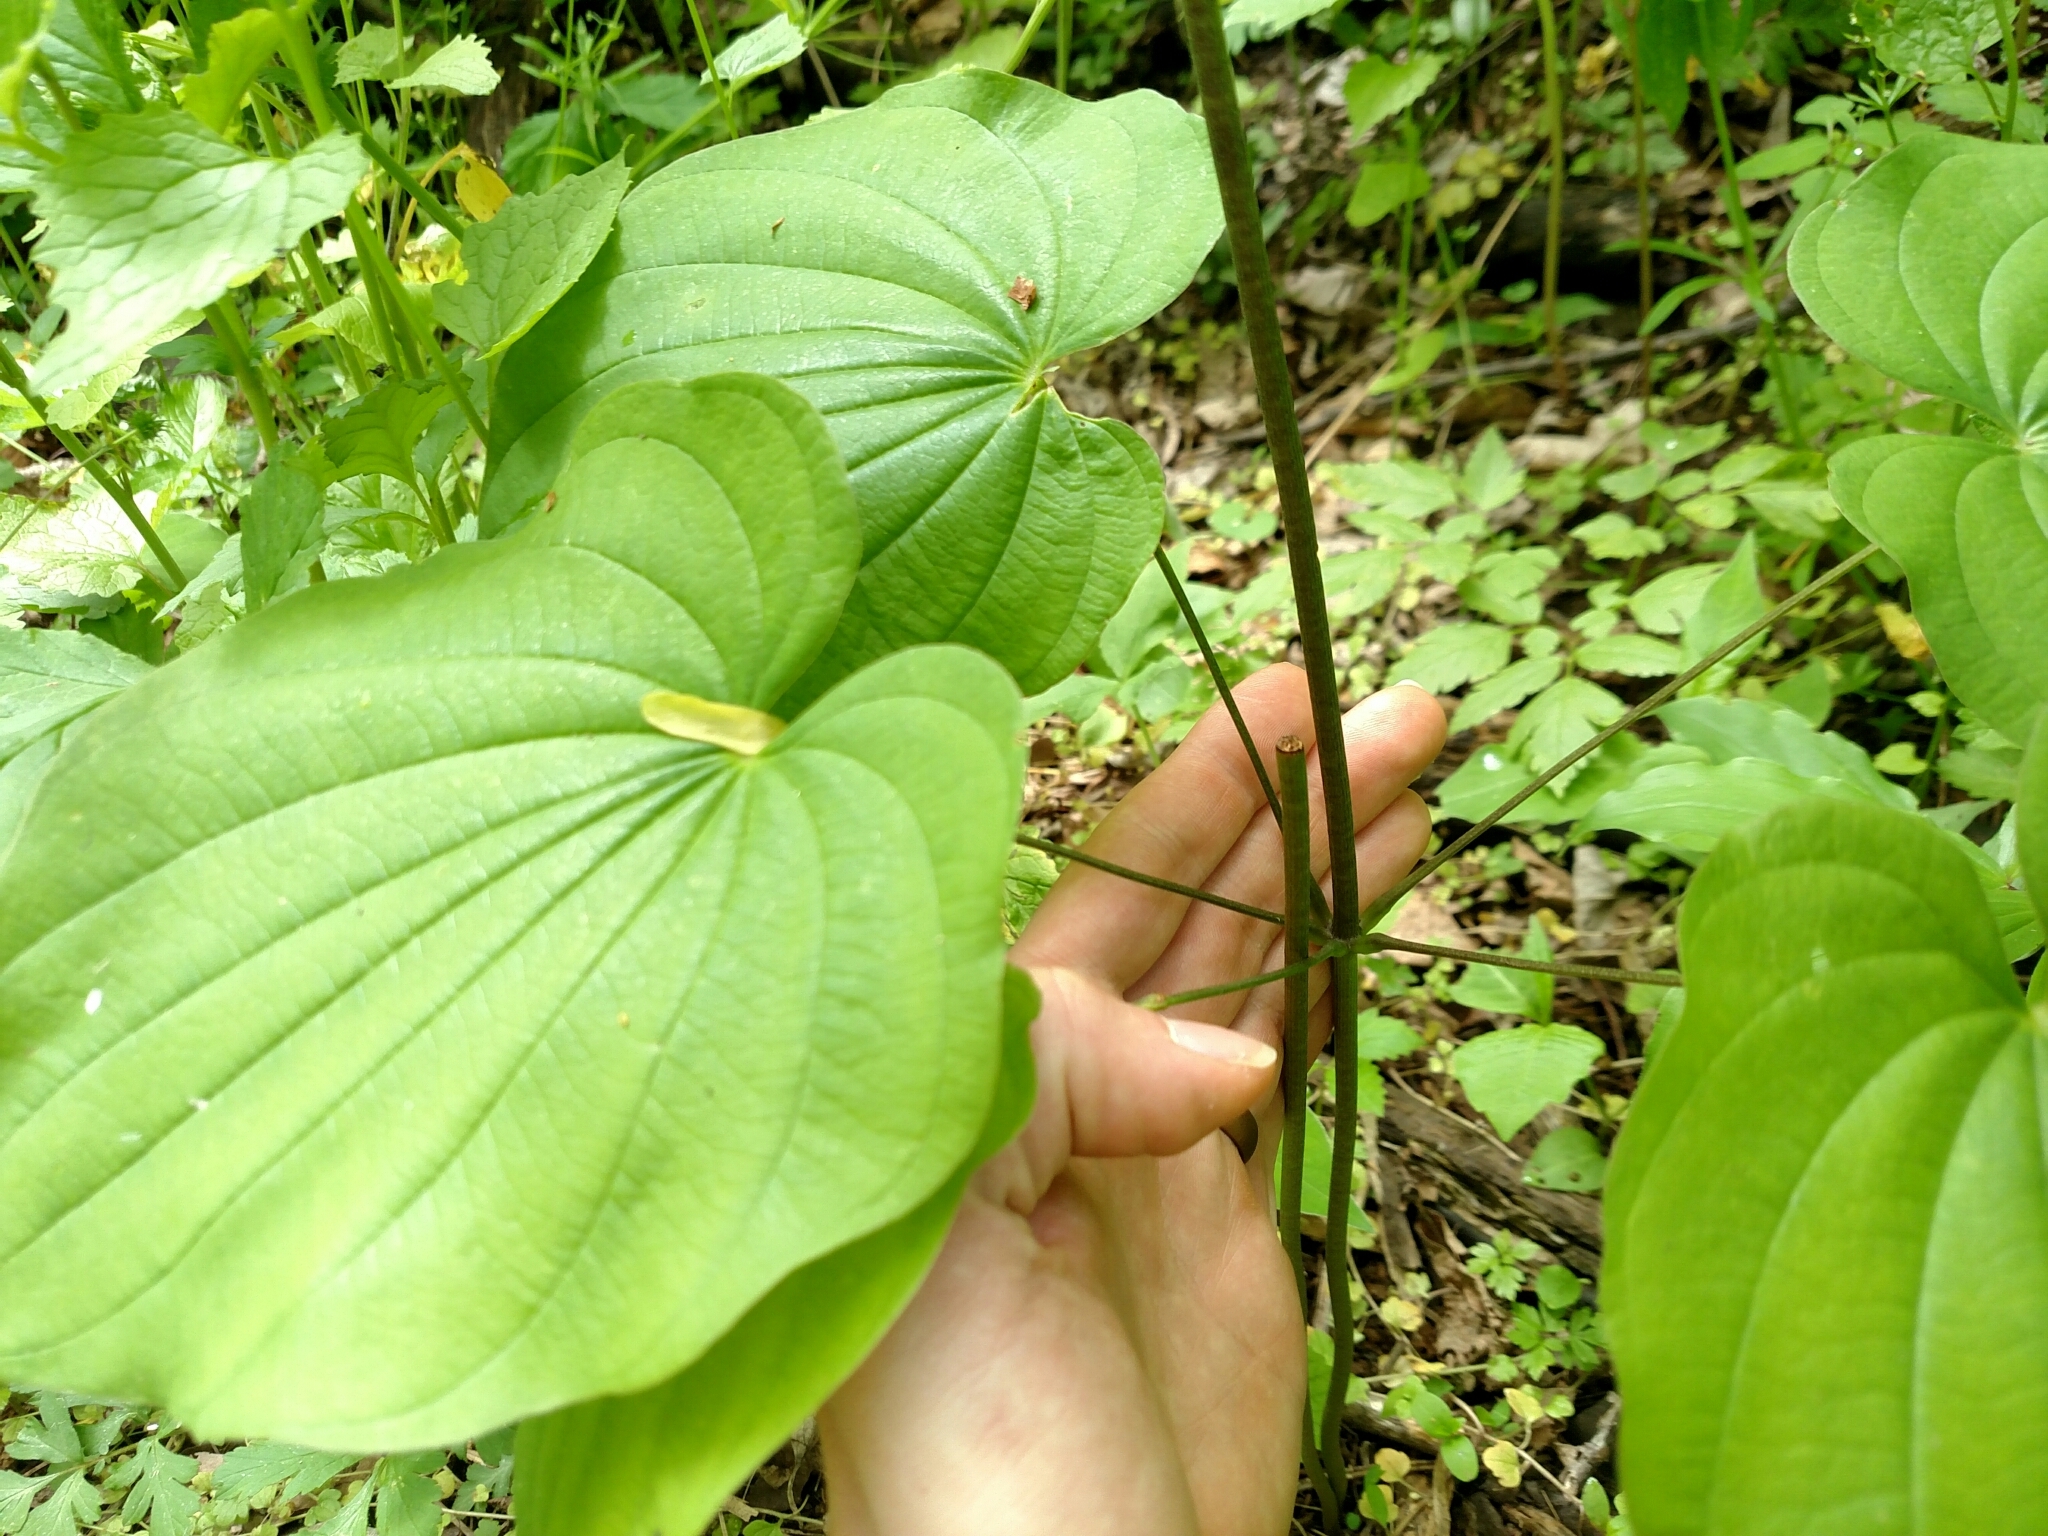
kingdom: Plantae
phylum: Tracheophyta
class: Liliopsida
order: Dioscoreales
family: Dioscoreaceae
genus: Dioscorea
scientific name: Dioscorea villosa
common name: Wild yam
